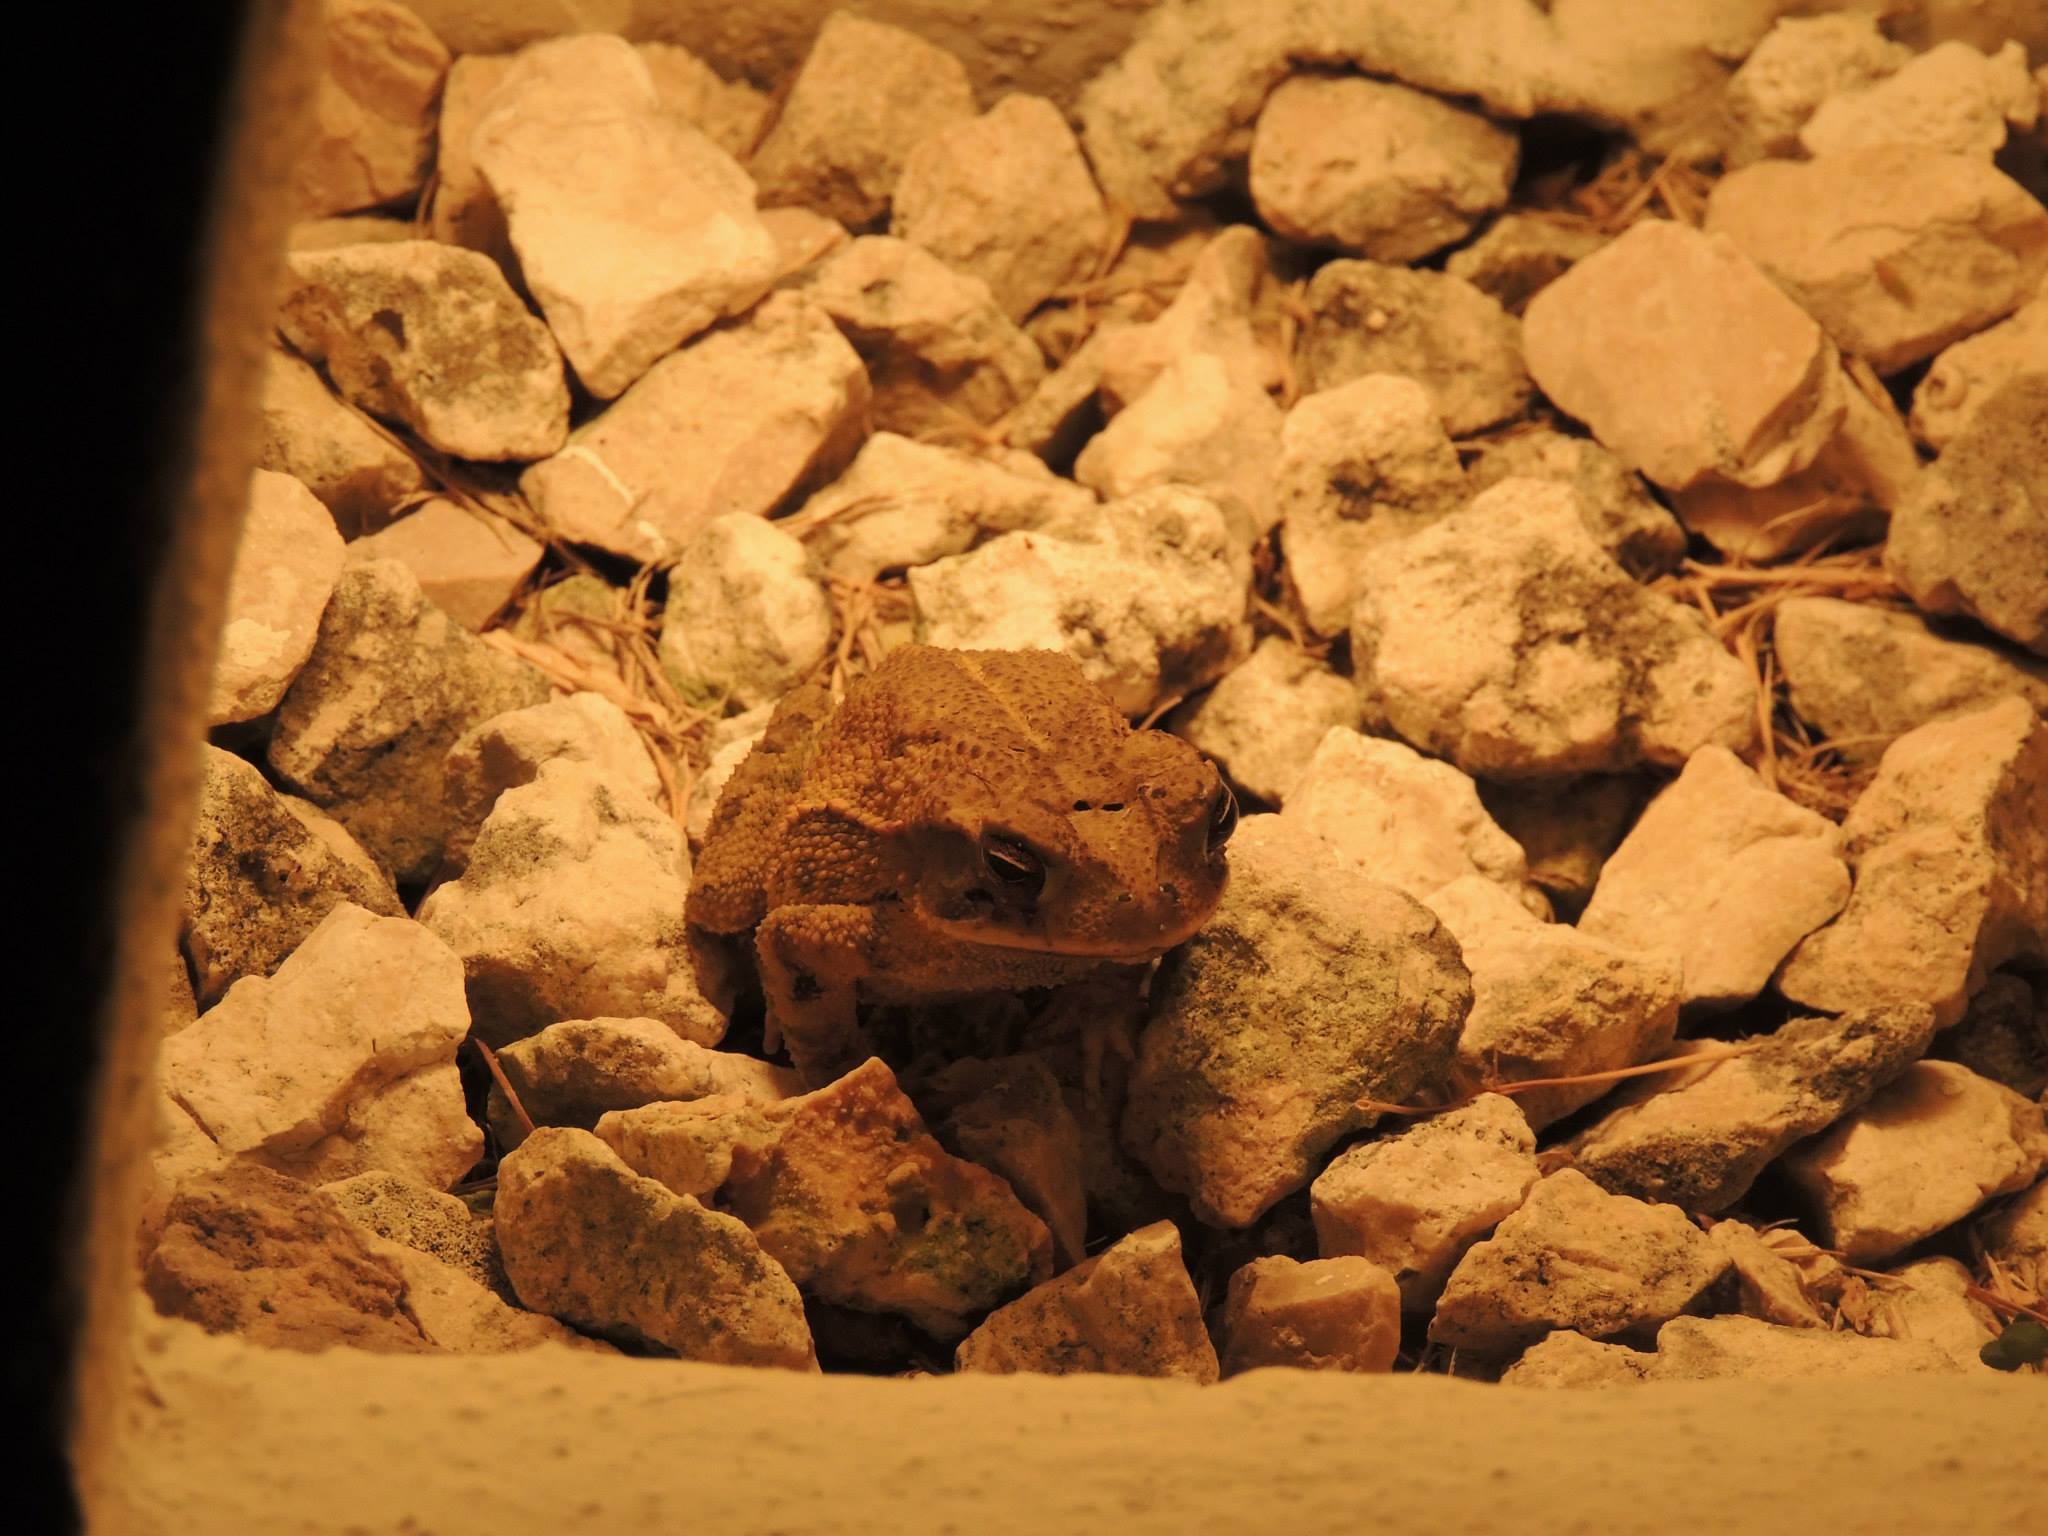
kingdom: Animalia
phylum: Chordata
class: Amphibia
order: Anura
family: Bufonidae
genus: Incilius
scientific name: Incilius valliceps
